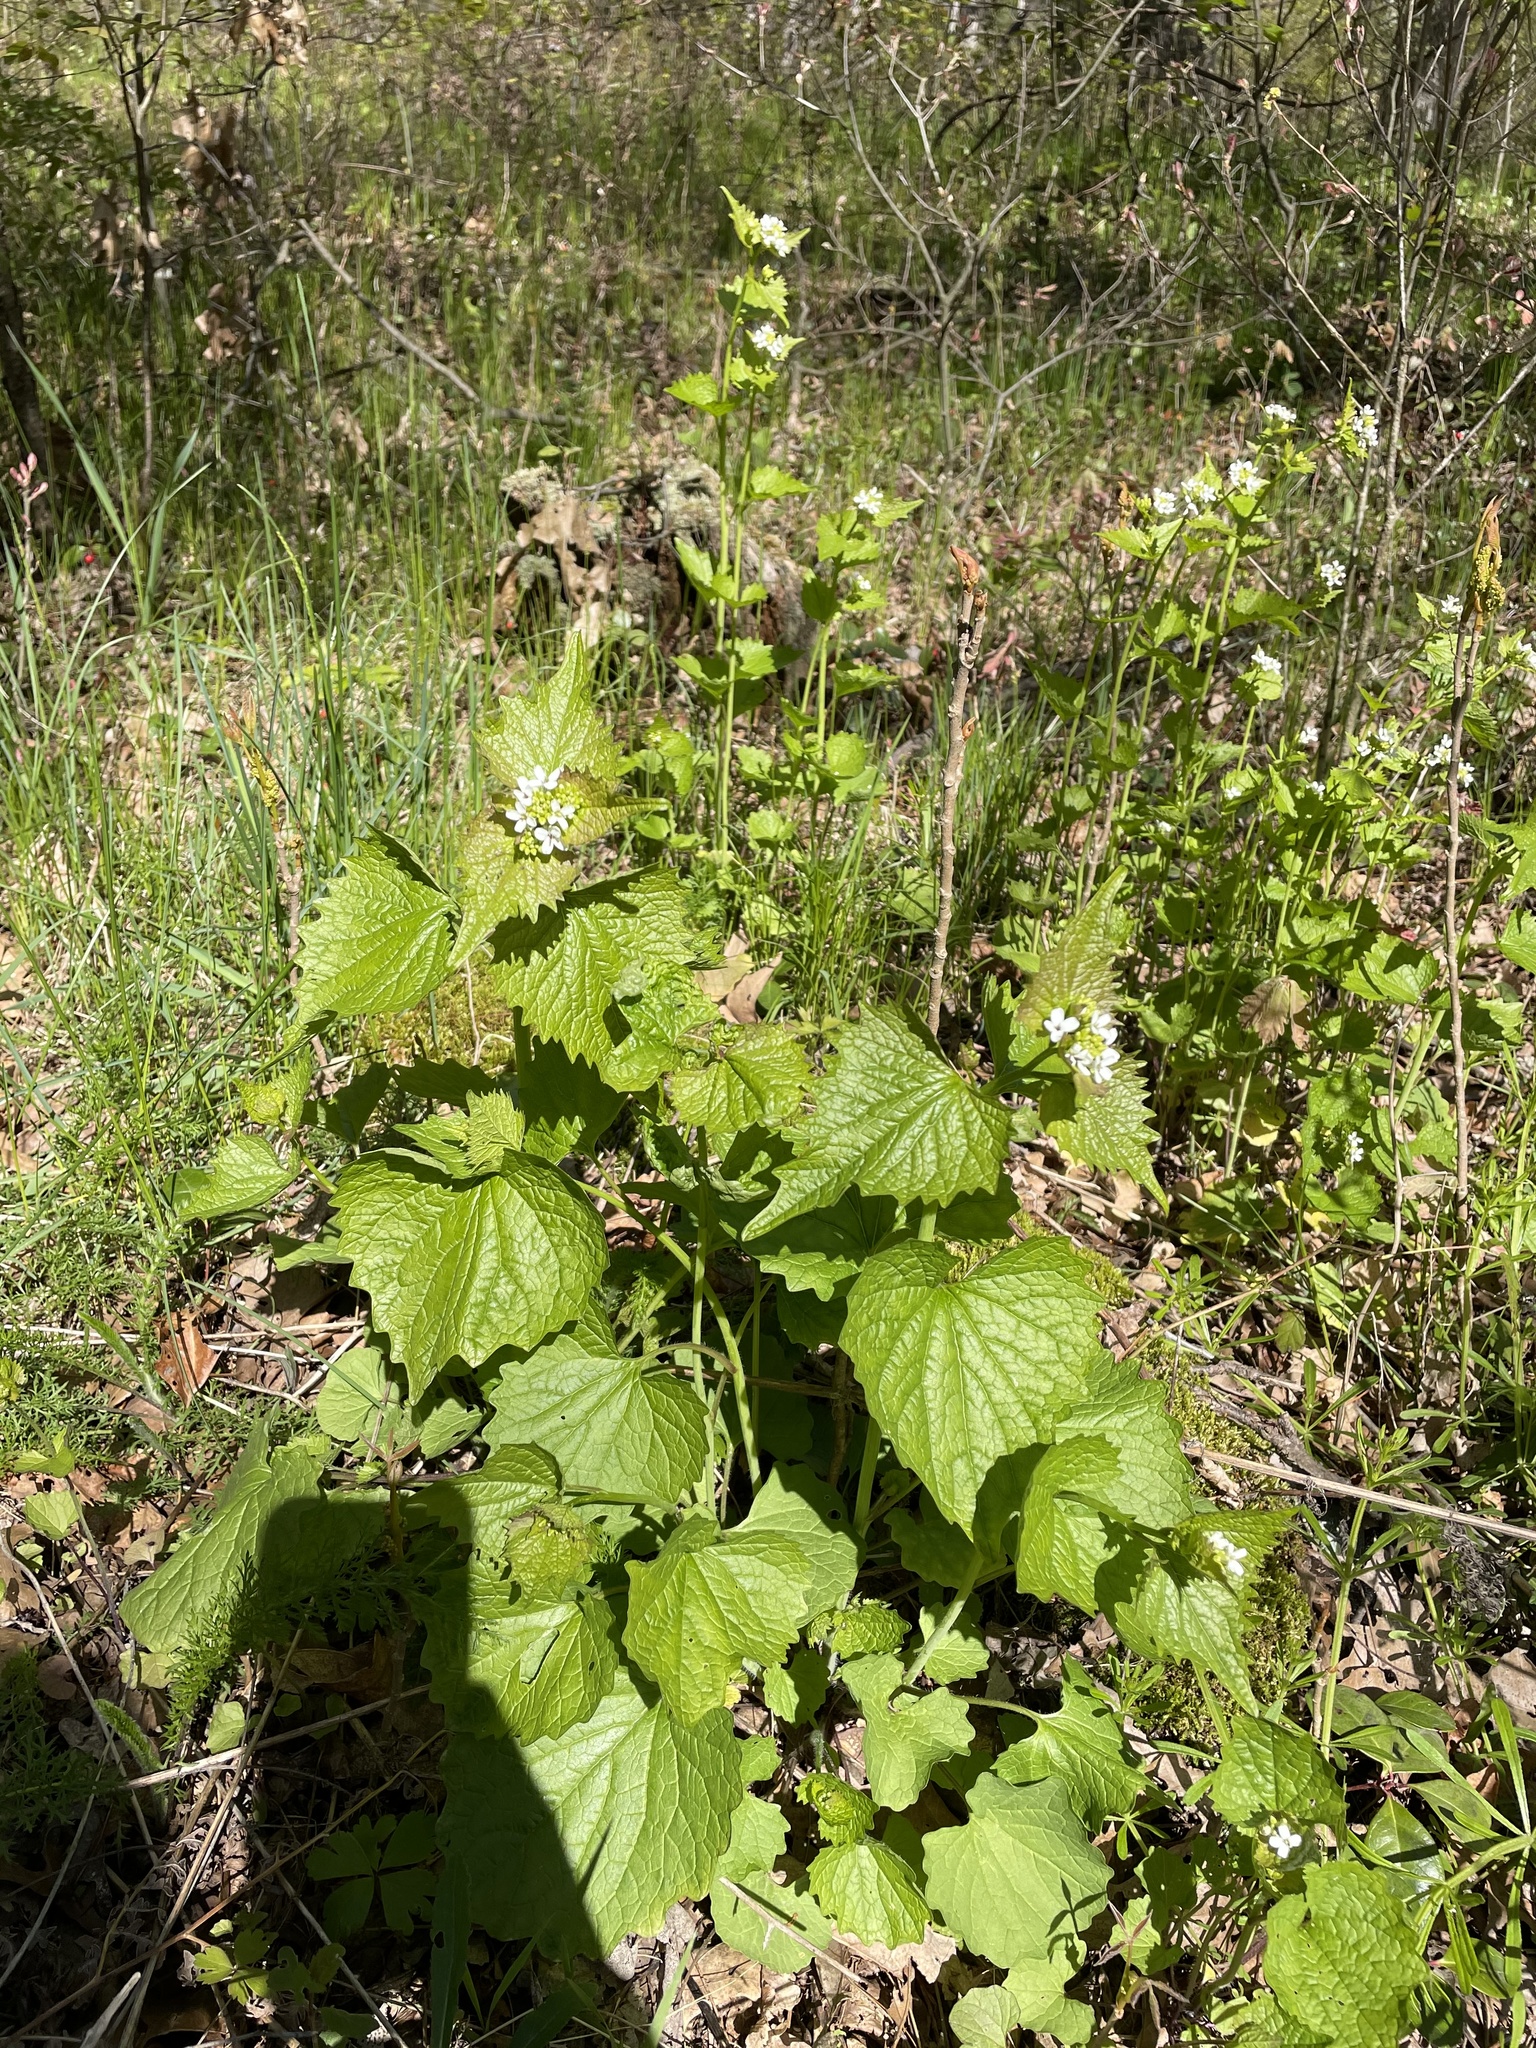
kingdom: Plantae
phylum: Tracheophyta
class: Magnoliopsida
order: Brassicales
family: Brassicaceae
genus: Alliaria
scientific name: Alliaria petiolata
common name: Garlic mustard
